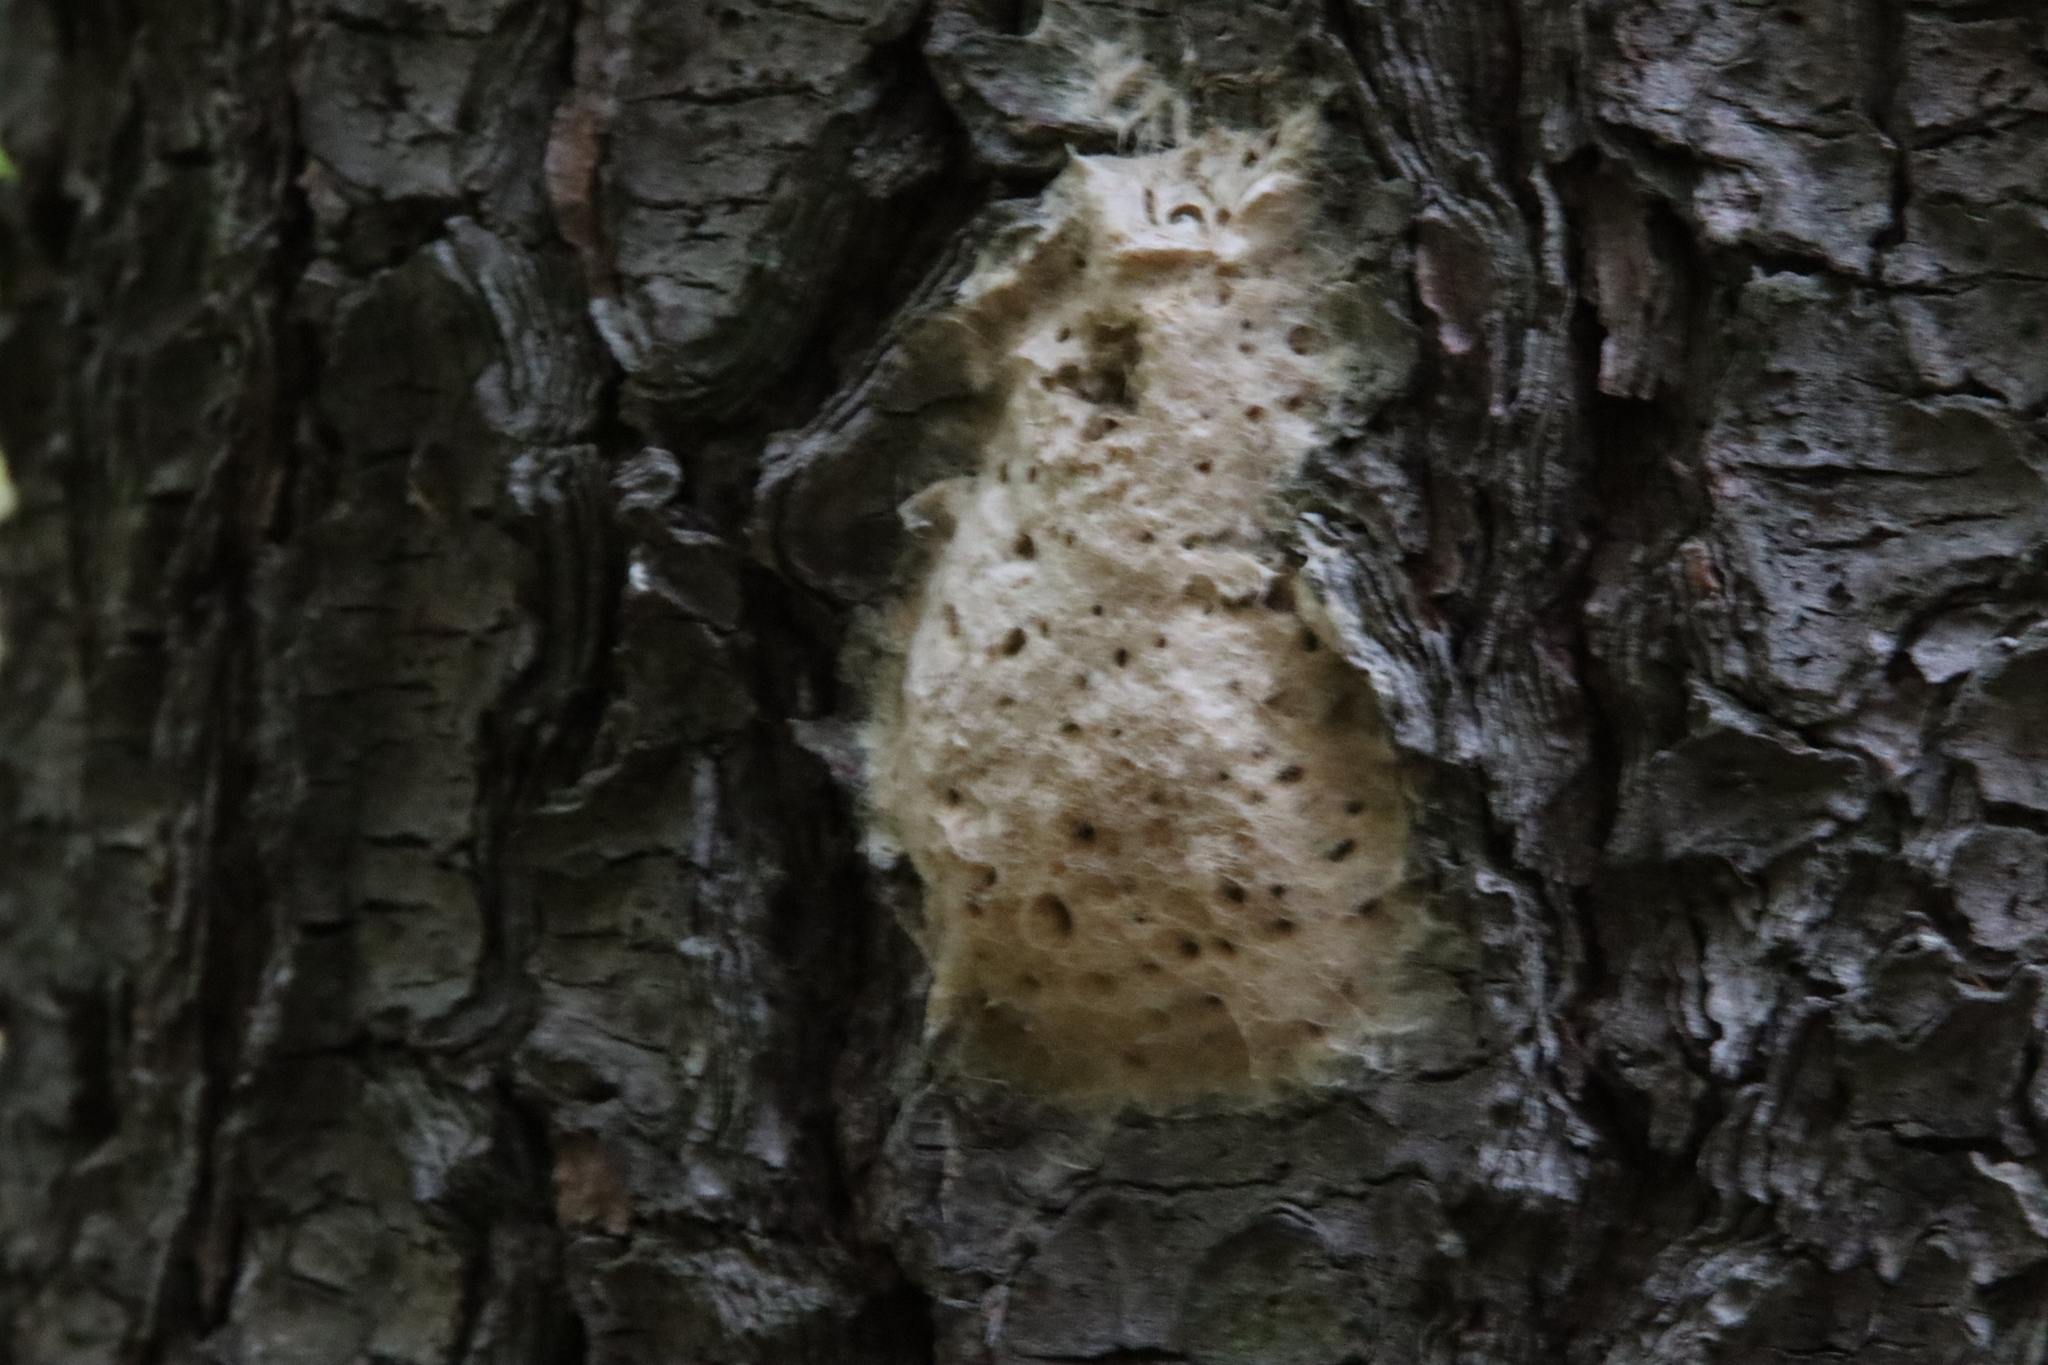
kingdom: Animalia
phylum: Arthropoda
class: Insecta
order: Lepidoptera
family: Erebidae
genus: Lymantria
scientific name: Lymantria dispar
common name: Gypsy moth
